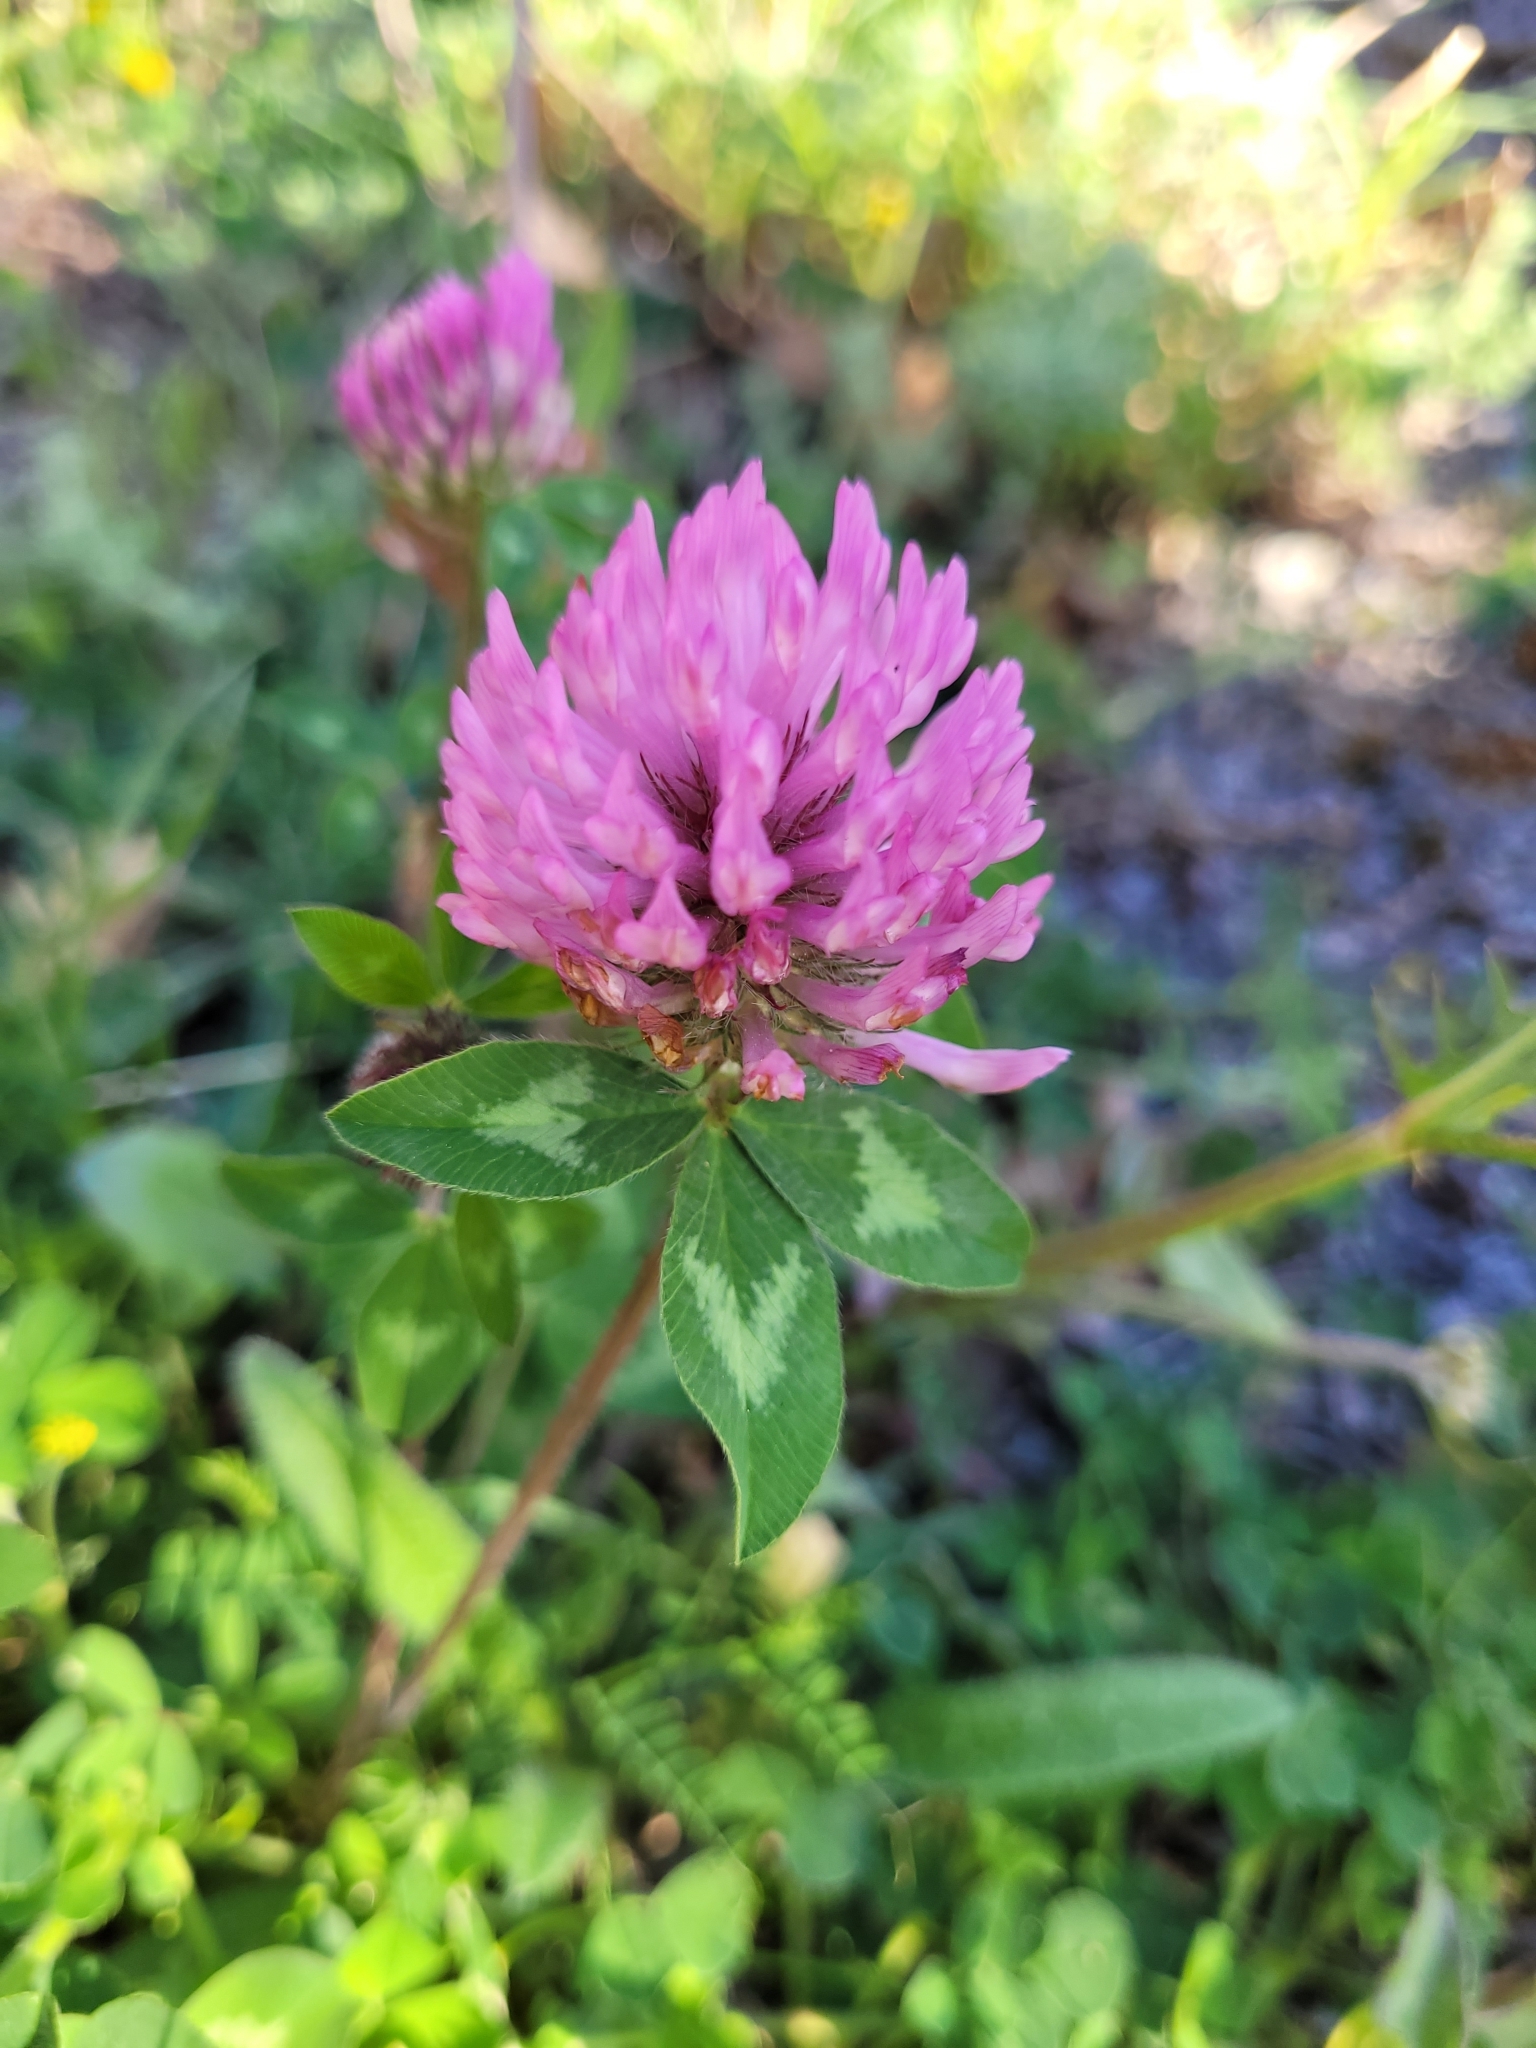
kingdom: Plantae
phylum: Tracheophyta
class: Magnoliopsida
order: Fabales
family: Fabaceae
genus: Trifolium
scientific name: Trifolium pratense
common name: Red clover
